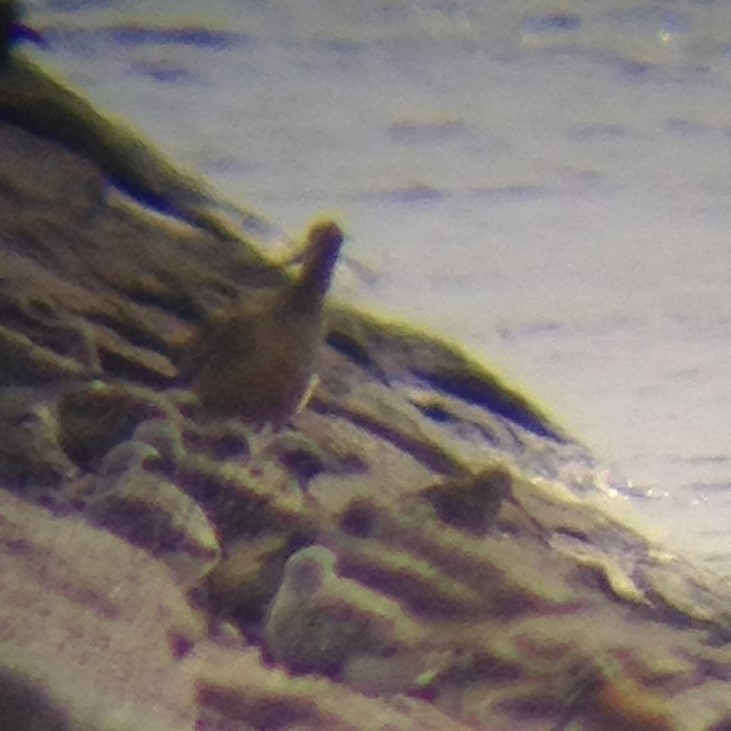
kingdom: Animalia
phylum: Chordata
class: Aves
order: Charadriiformes
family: Scolopacidae
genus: Limosa
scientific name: Limosa fedoa
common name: Marbled godwit
